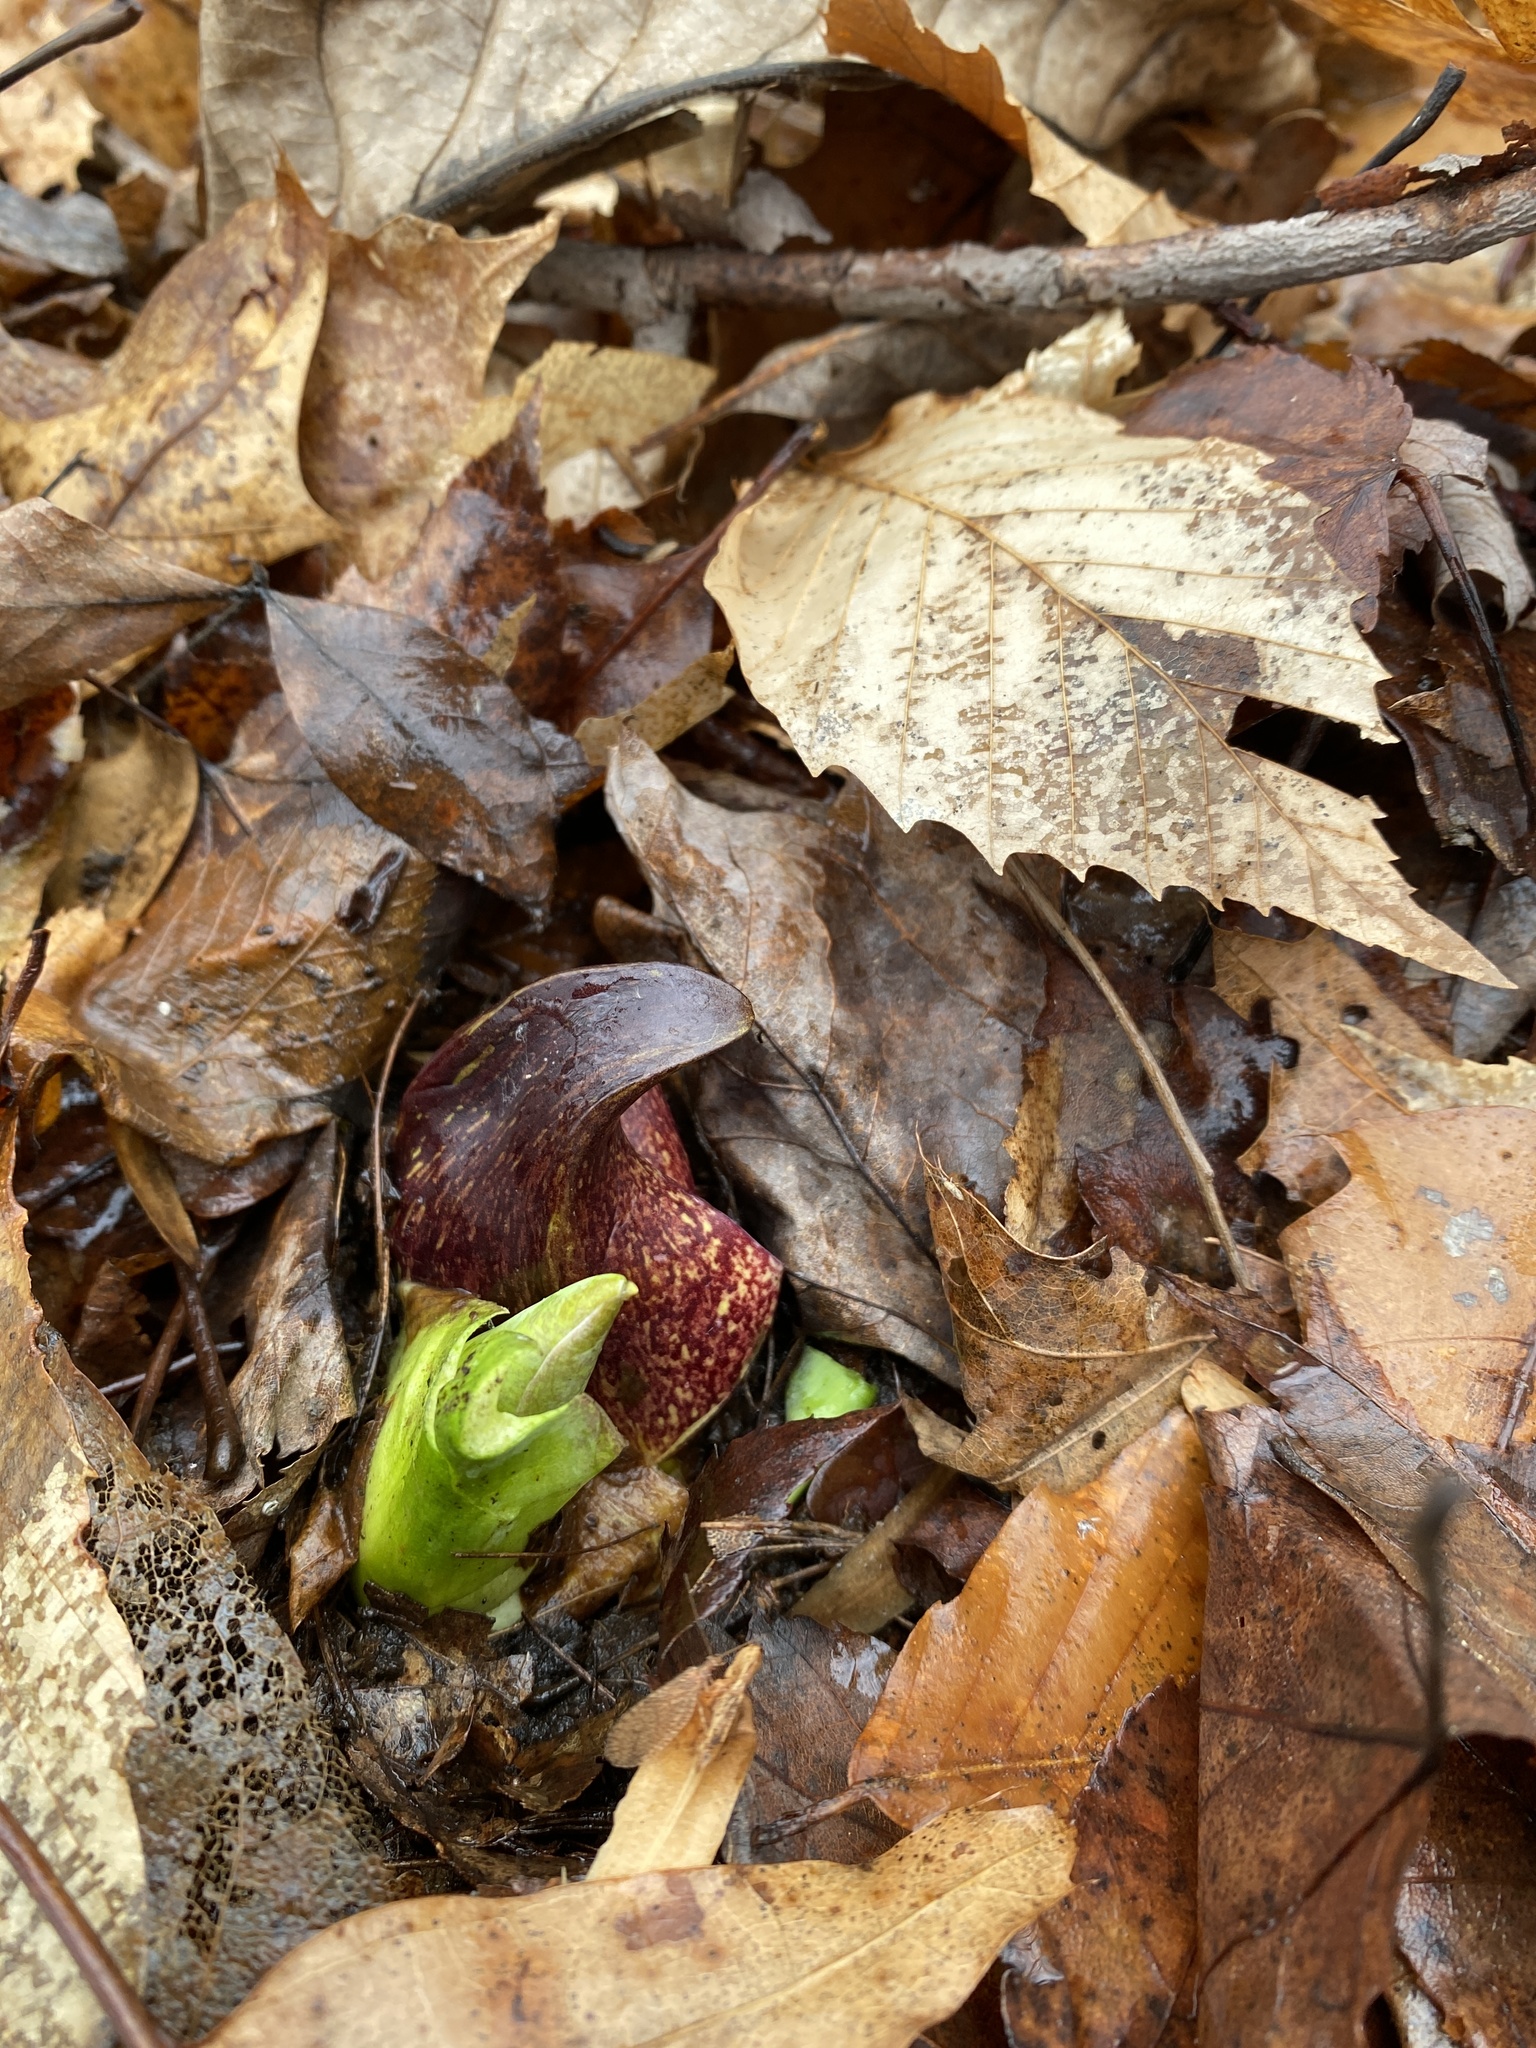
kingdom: Plantae
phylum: Tracheophyta
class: Liliopsida
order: Alismatales
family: Araceae
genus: Symplocarpus
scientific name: Symplocarpus foetidus
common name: Eastern skunk cabbage
